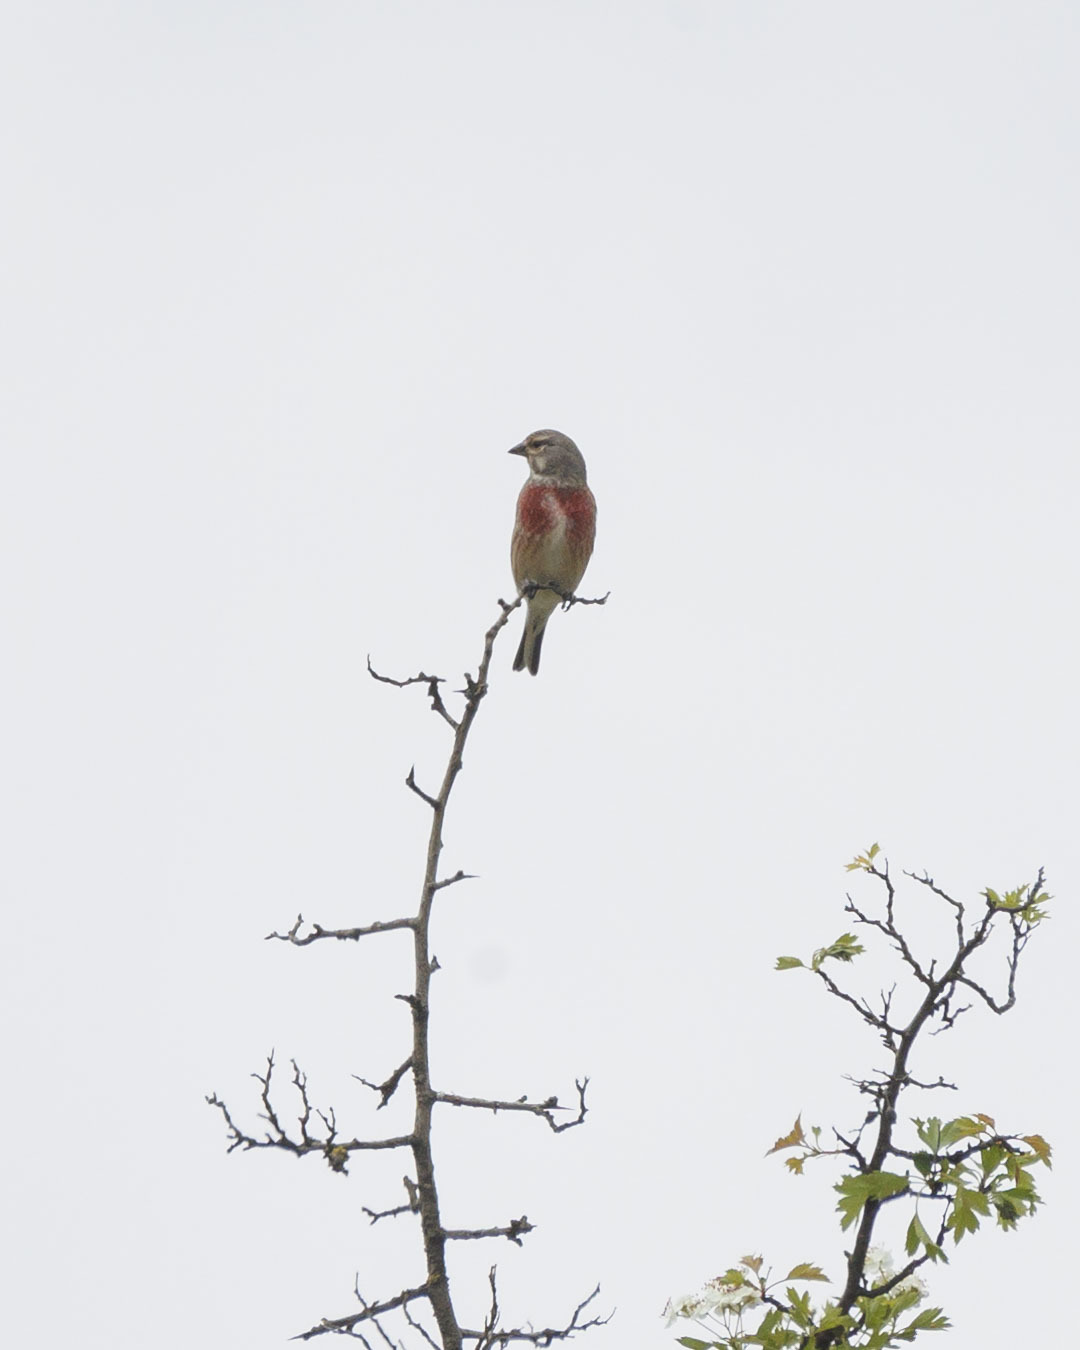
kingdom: Animalia
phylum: Chordata
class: Aves
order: Passeriformes
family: Fringillidae
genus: Linaria
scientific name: Linaria cannabina
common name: Common linnet
